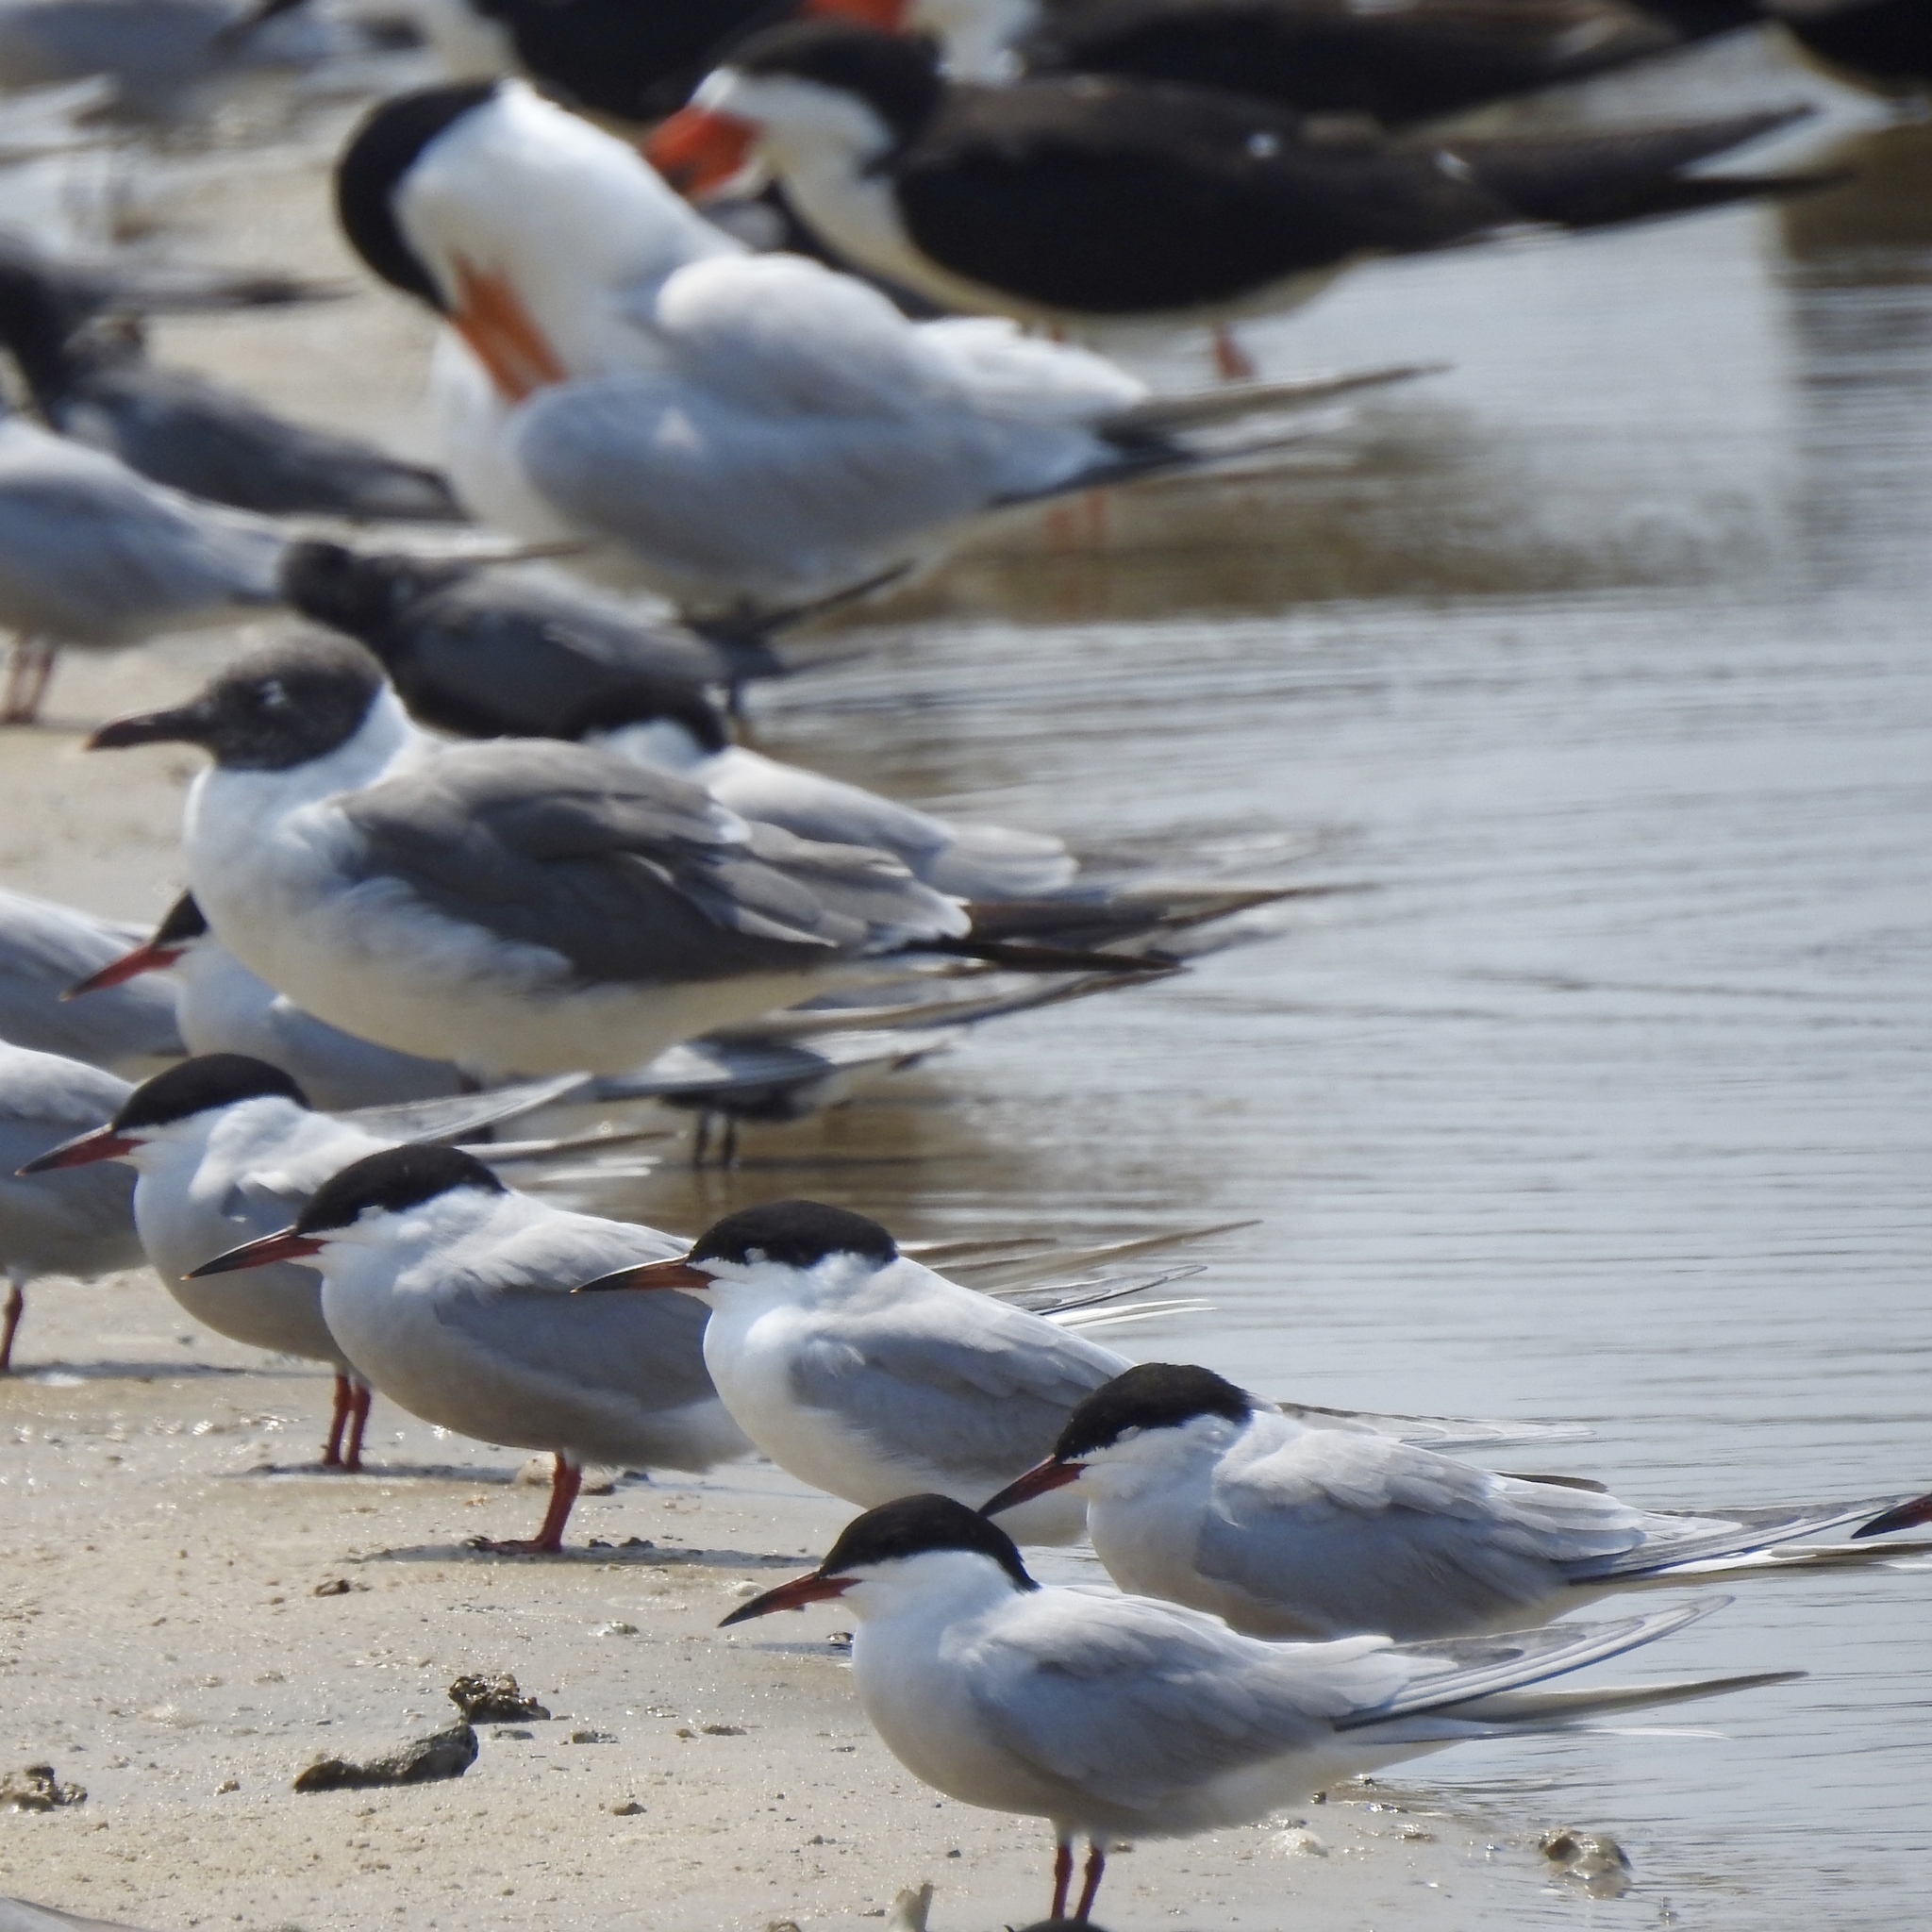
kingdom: Animalia
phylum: Chordata
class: Aves
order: Charadriiformes
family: Laridae
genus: Sterna
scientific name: Sterna hirundo
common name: Common tern
